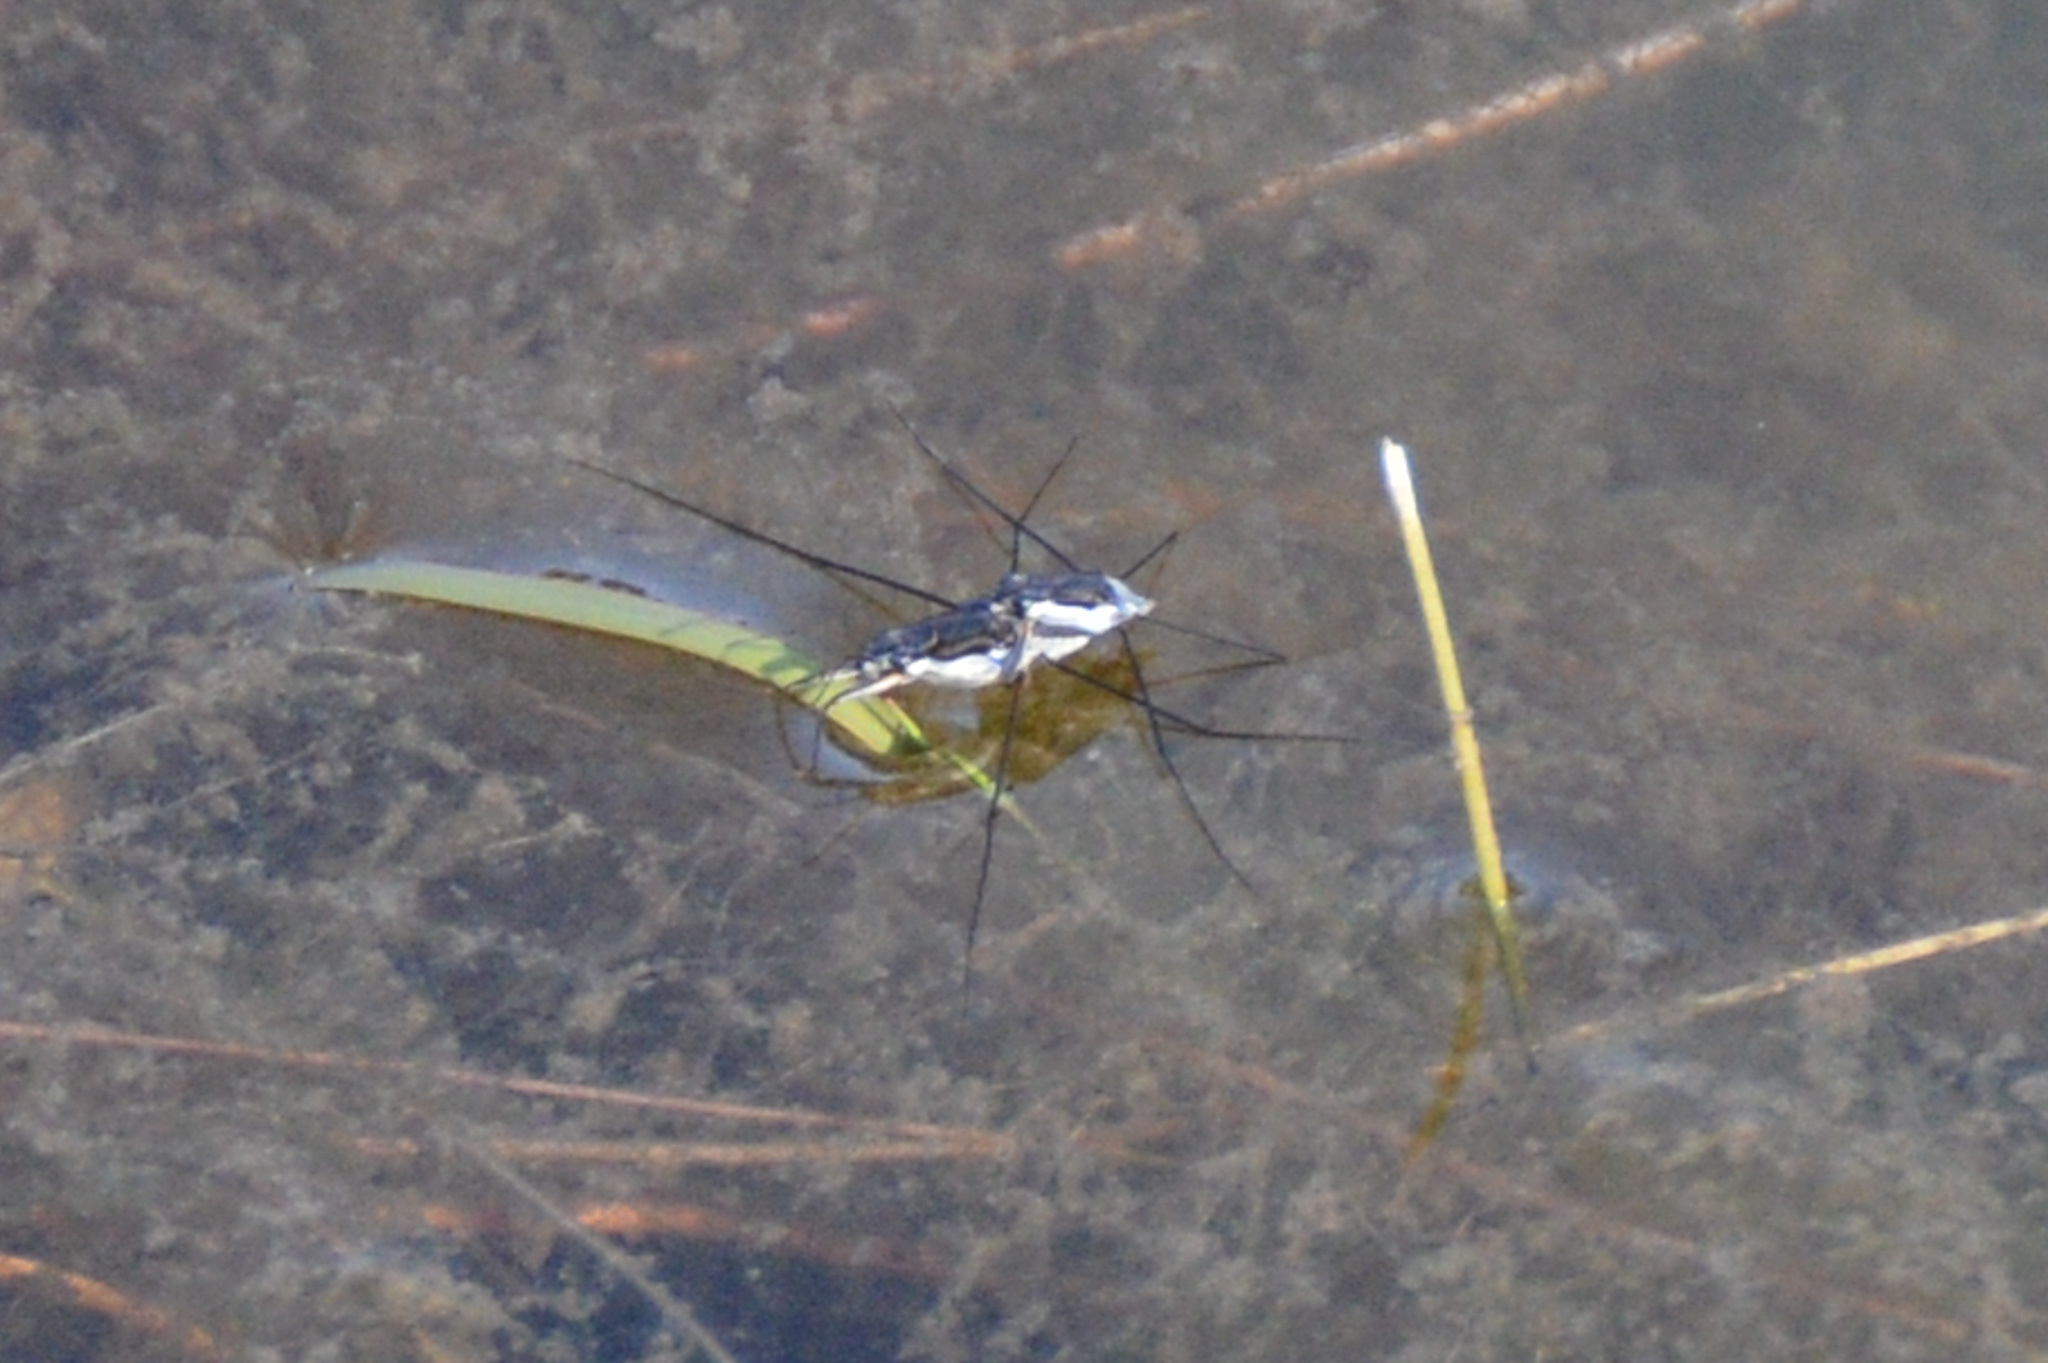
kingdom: Animalia
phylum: Arthropoda
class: Insecta
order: Hemiptera
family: Gerridae
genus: Neogerris
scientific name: Neogerris hesione
